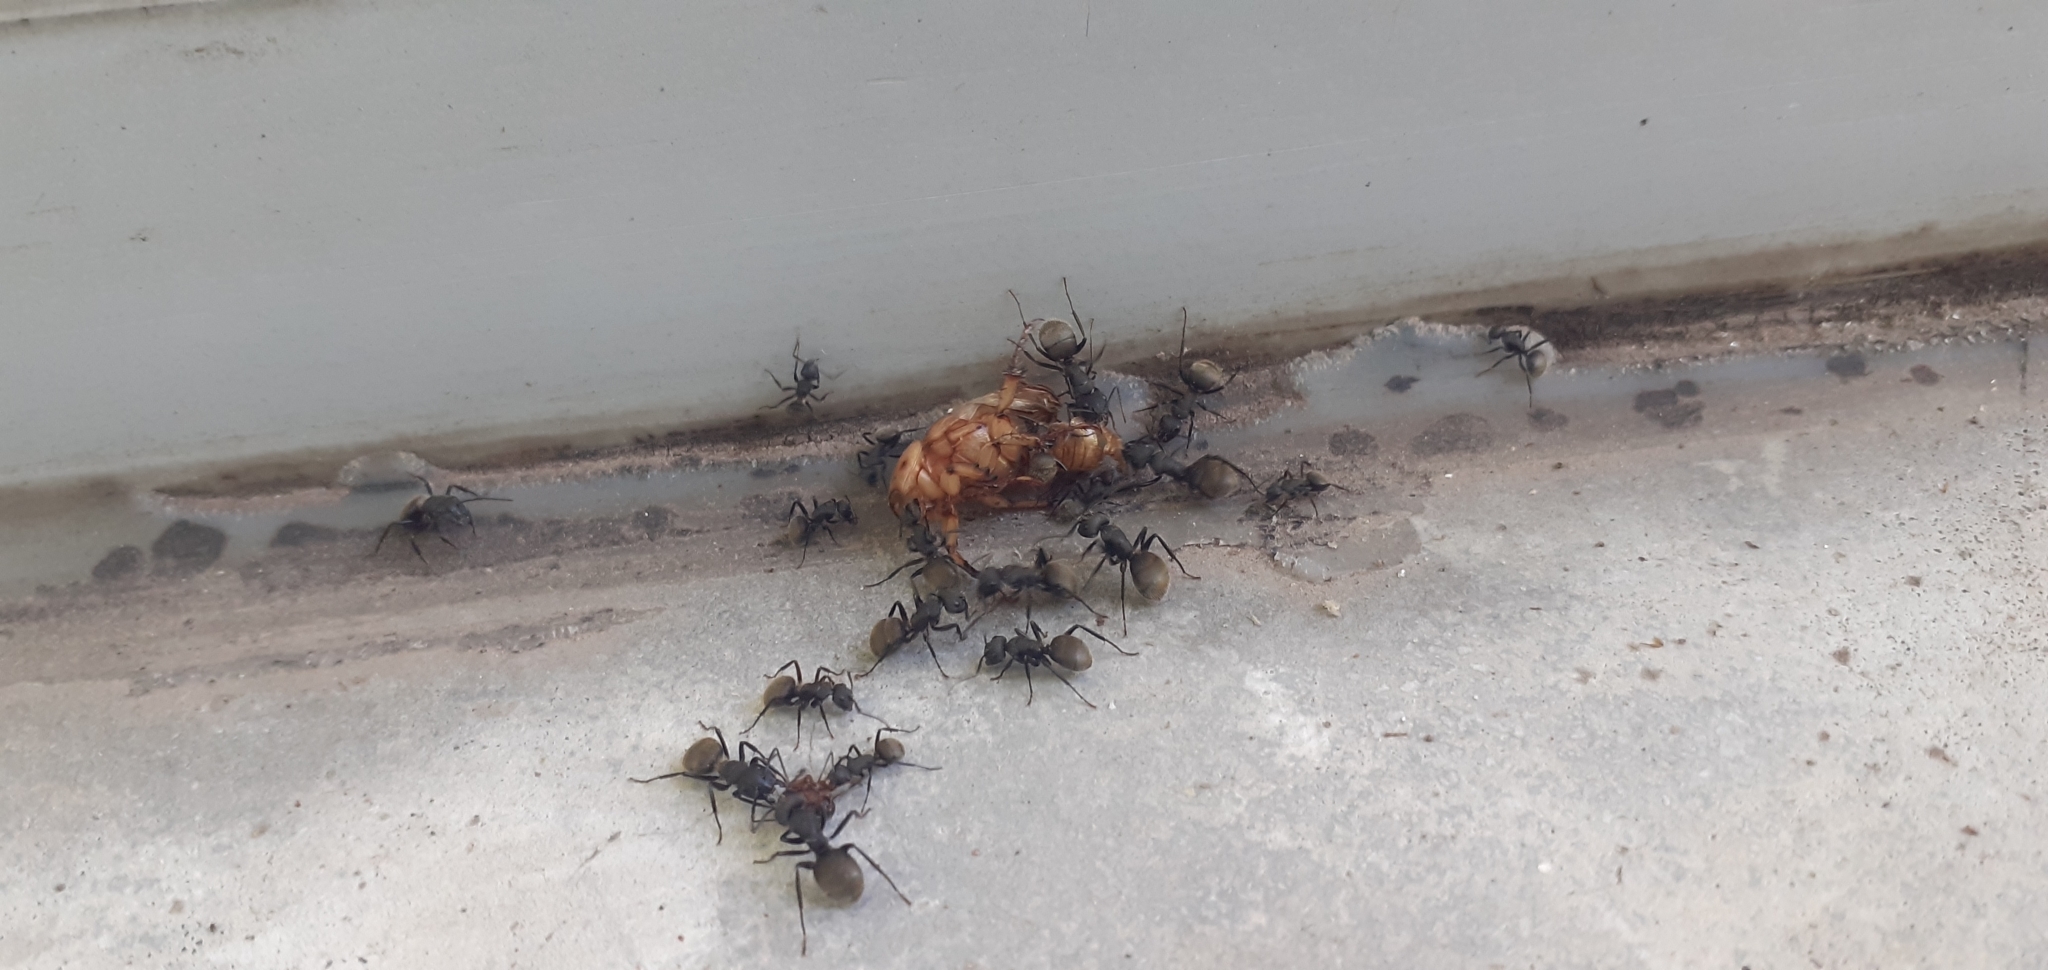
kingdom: Animalia
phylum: Arthropoda
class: Insecta
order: Hymenoptera
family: Formicidae
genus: Camponotus
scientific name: Camponotus mus
